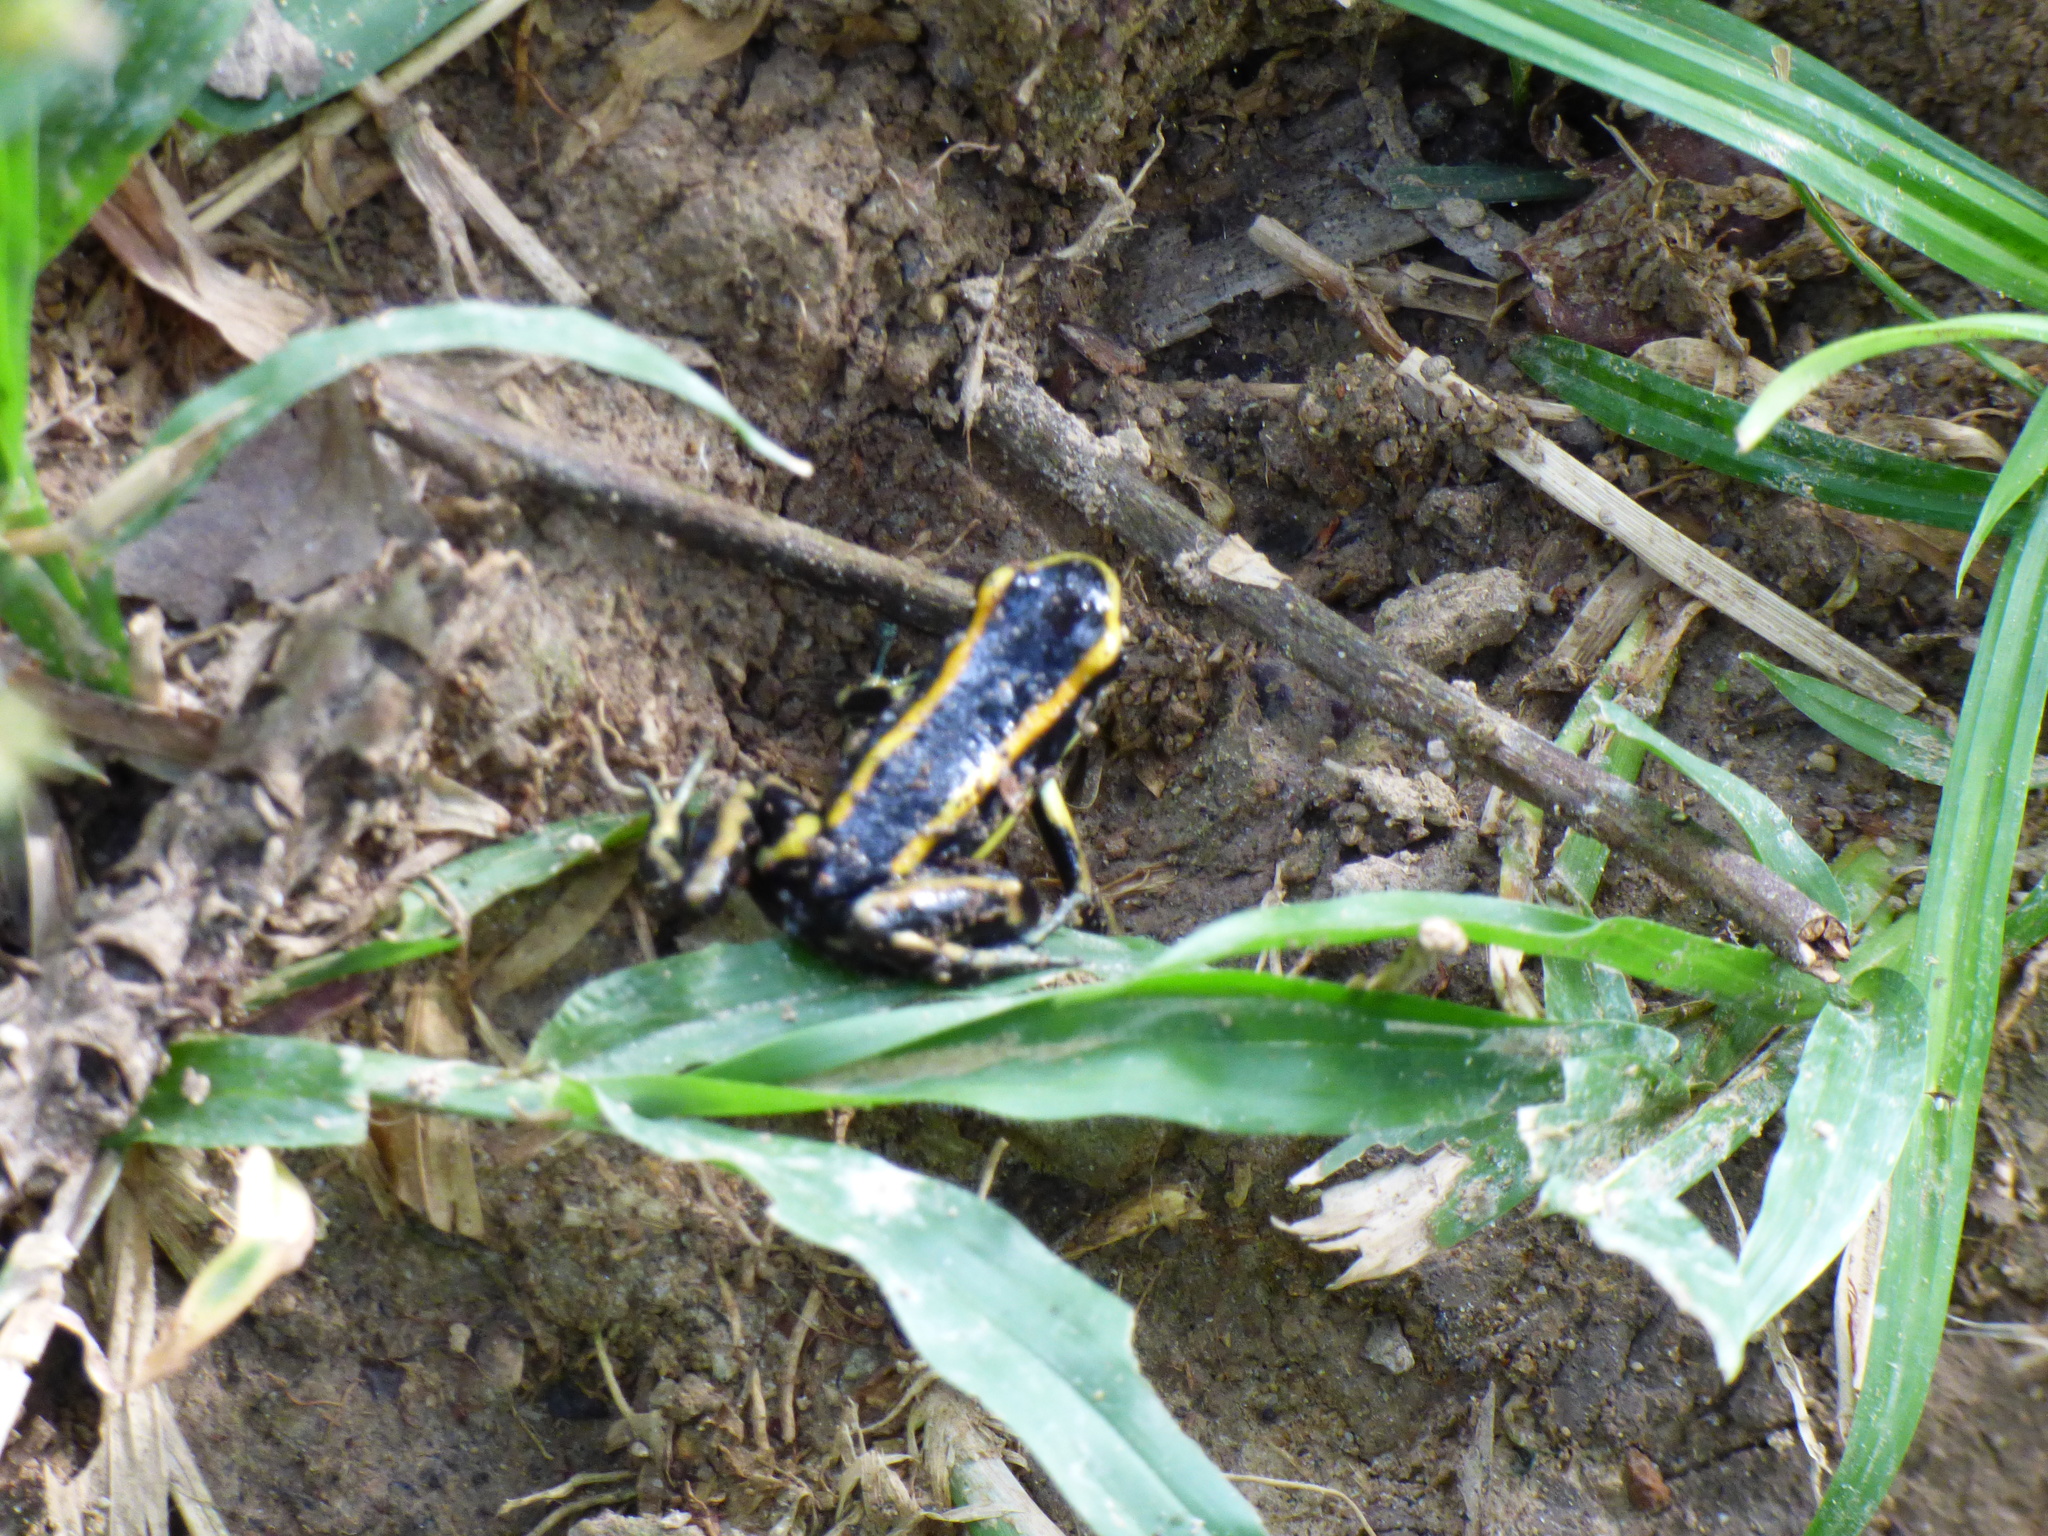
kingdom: Animalia
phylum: Chordata
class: Amphibia
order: Anura
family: Dendrobatidae
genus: Dendrobates
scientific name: Dendrobates truncatus
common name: Yellow-striped poison frog
